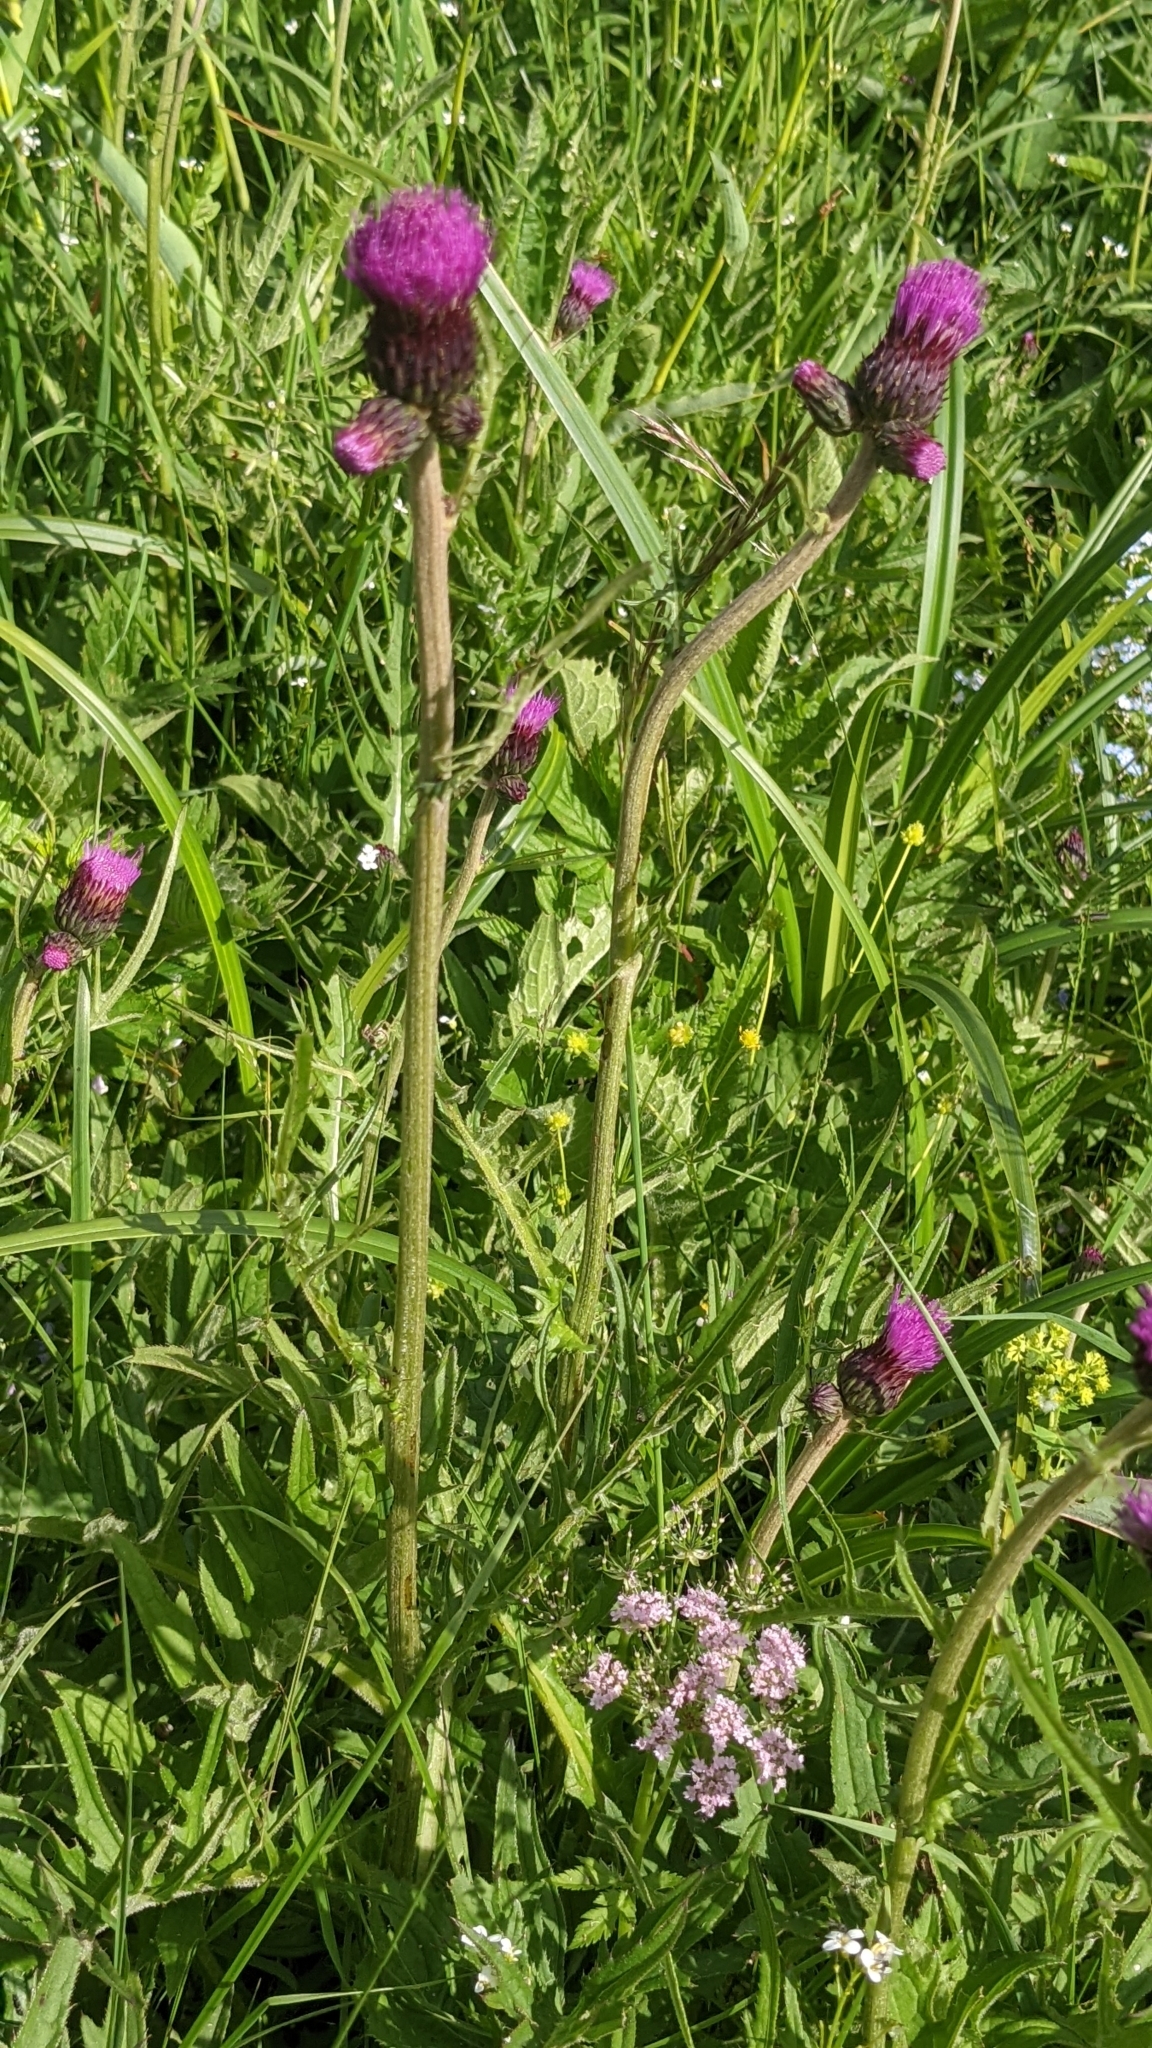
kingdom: Plantae
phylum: Tracheophyta
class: Magnoliopsida
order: Asterales
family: Asteraceae
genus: Cirsium
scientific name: Cirsium rivulare
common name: Brook thistle
